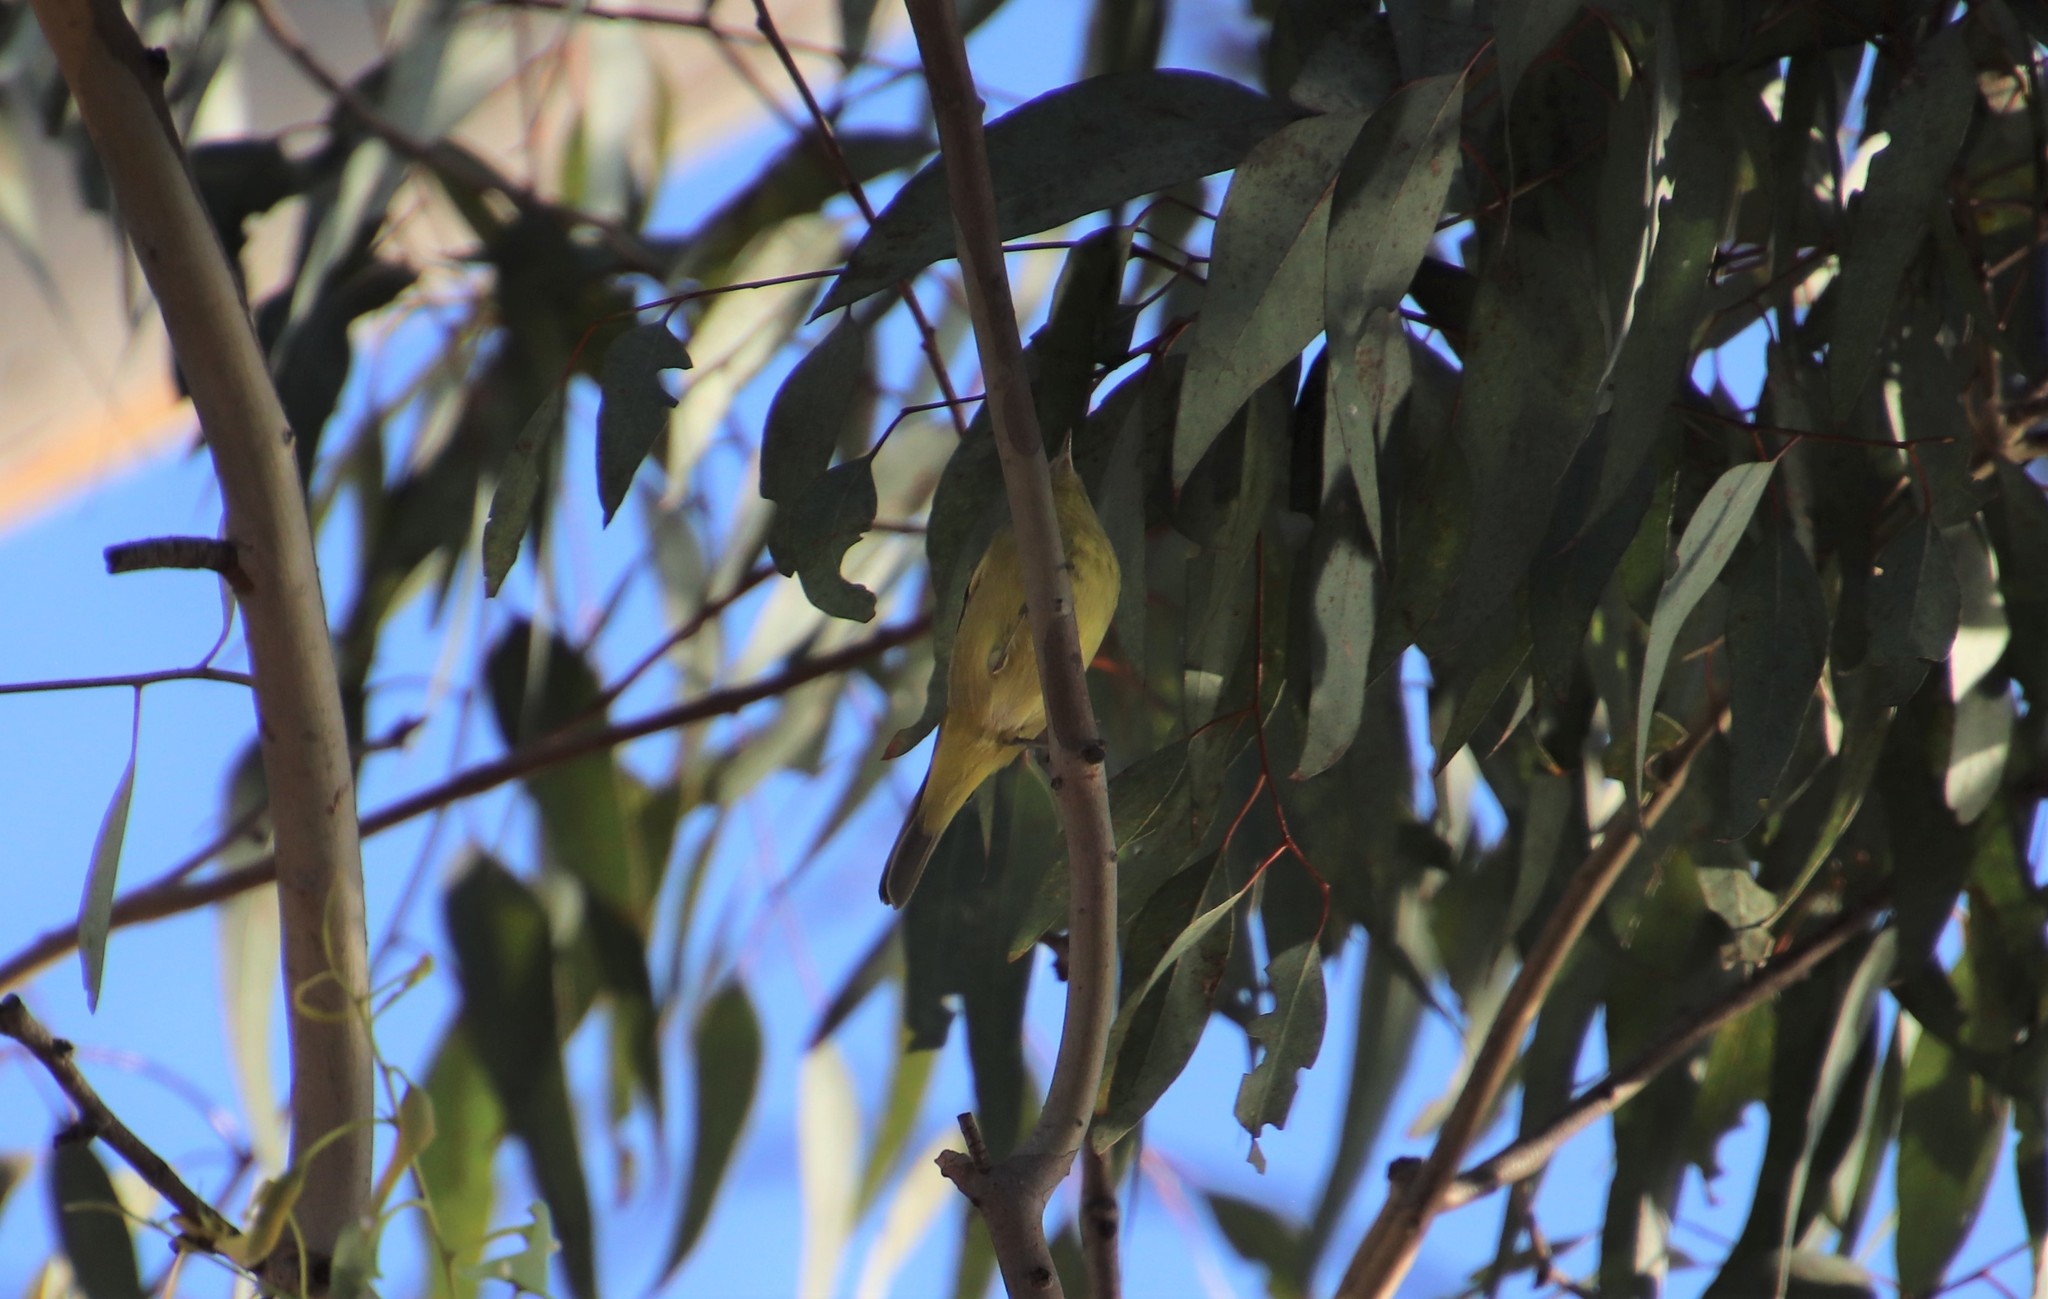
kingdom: Animalia
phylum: Chordata
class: Aves
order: Passeriformes
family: Parulidae
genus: Leiothlypis
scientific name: Leiothlypis celata
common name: Orange-crowned warbler
